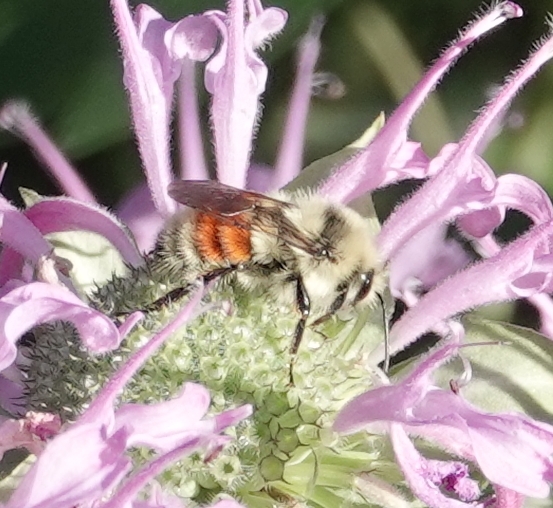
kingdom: Animalia
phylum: Arthropoda
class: Insecta
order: Hymenoptera
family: Apidae
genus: Bombus
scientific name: Bombus huntii
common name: Hunt bumble bee
